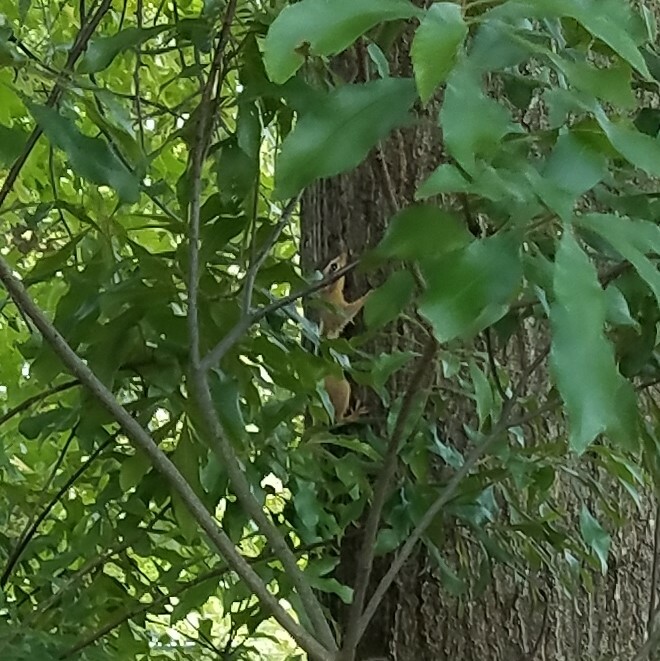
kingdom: Animalia
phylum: Chordata
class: Mammalia
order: Rodentia
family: Sciuridae
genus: Tamias
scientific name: Tamias striatus
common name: Eastern chipmunk
